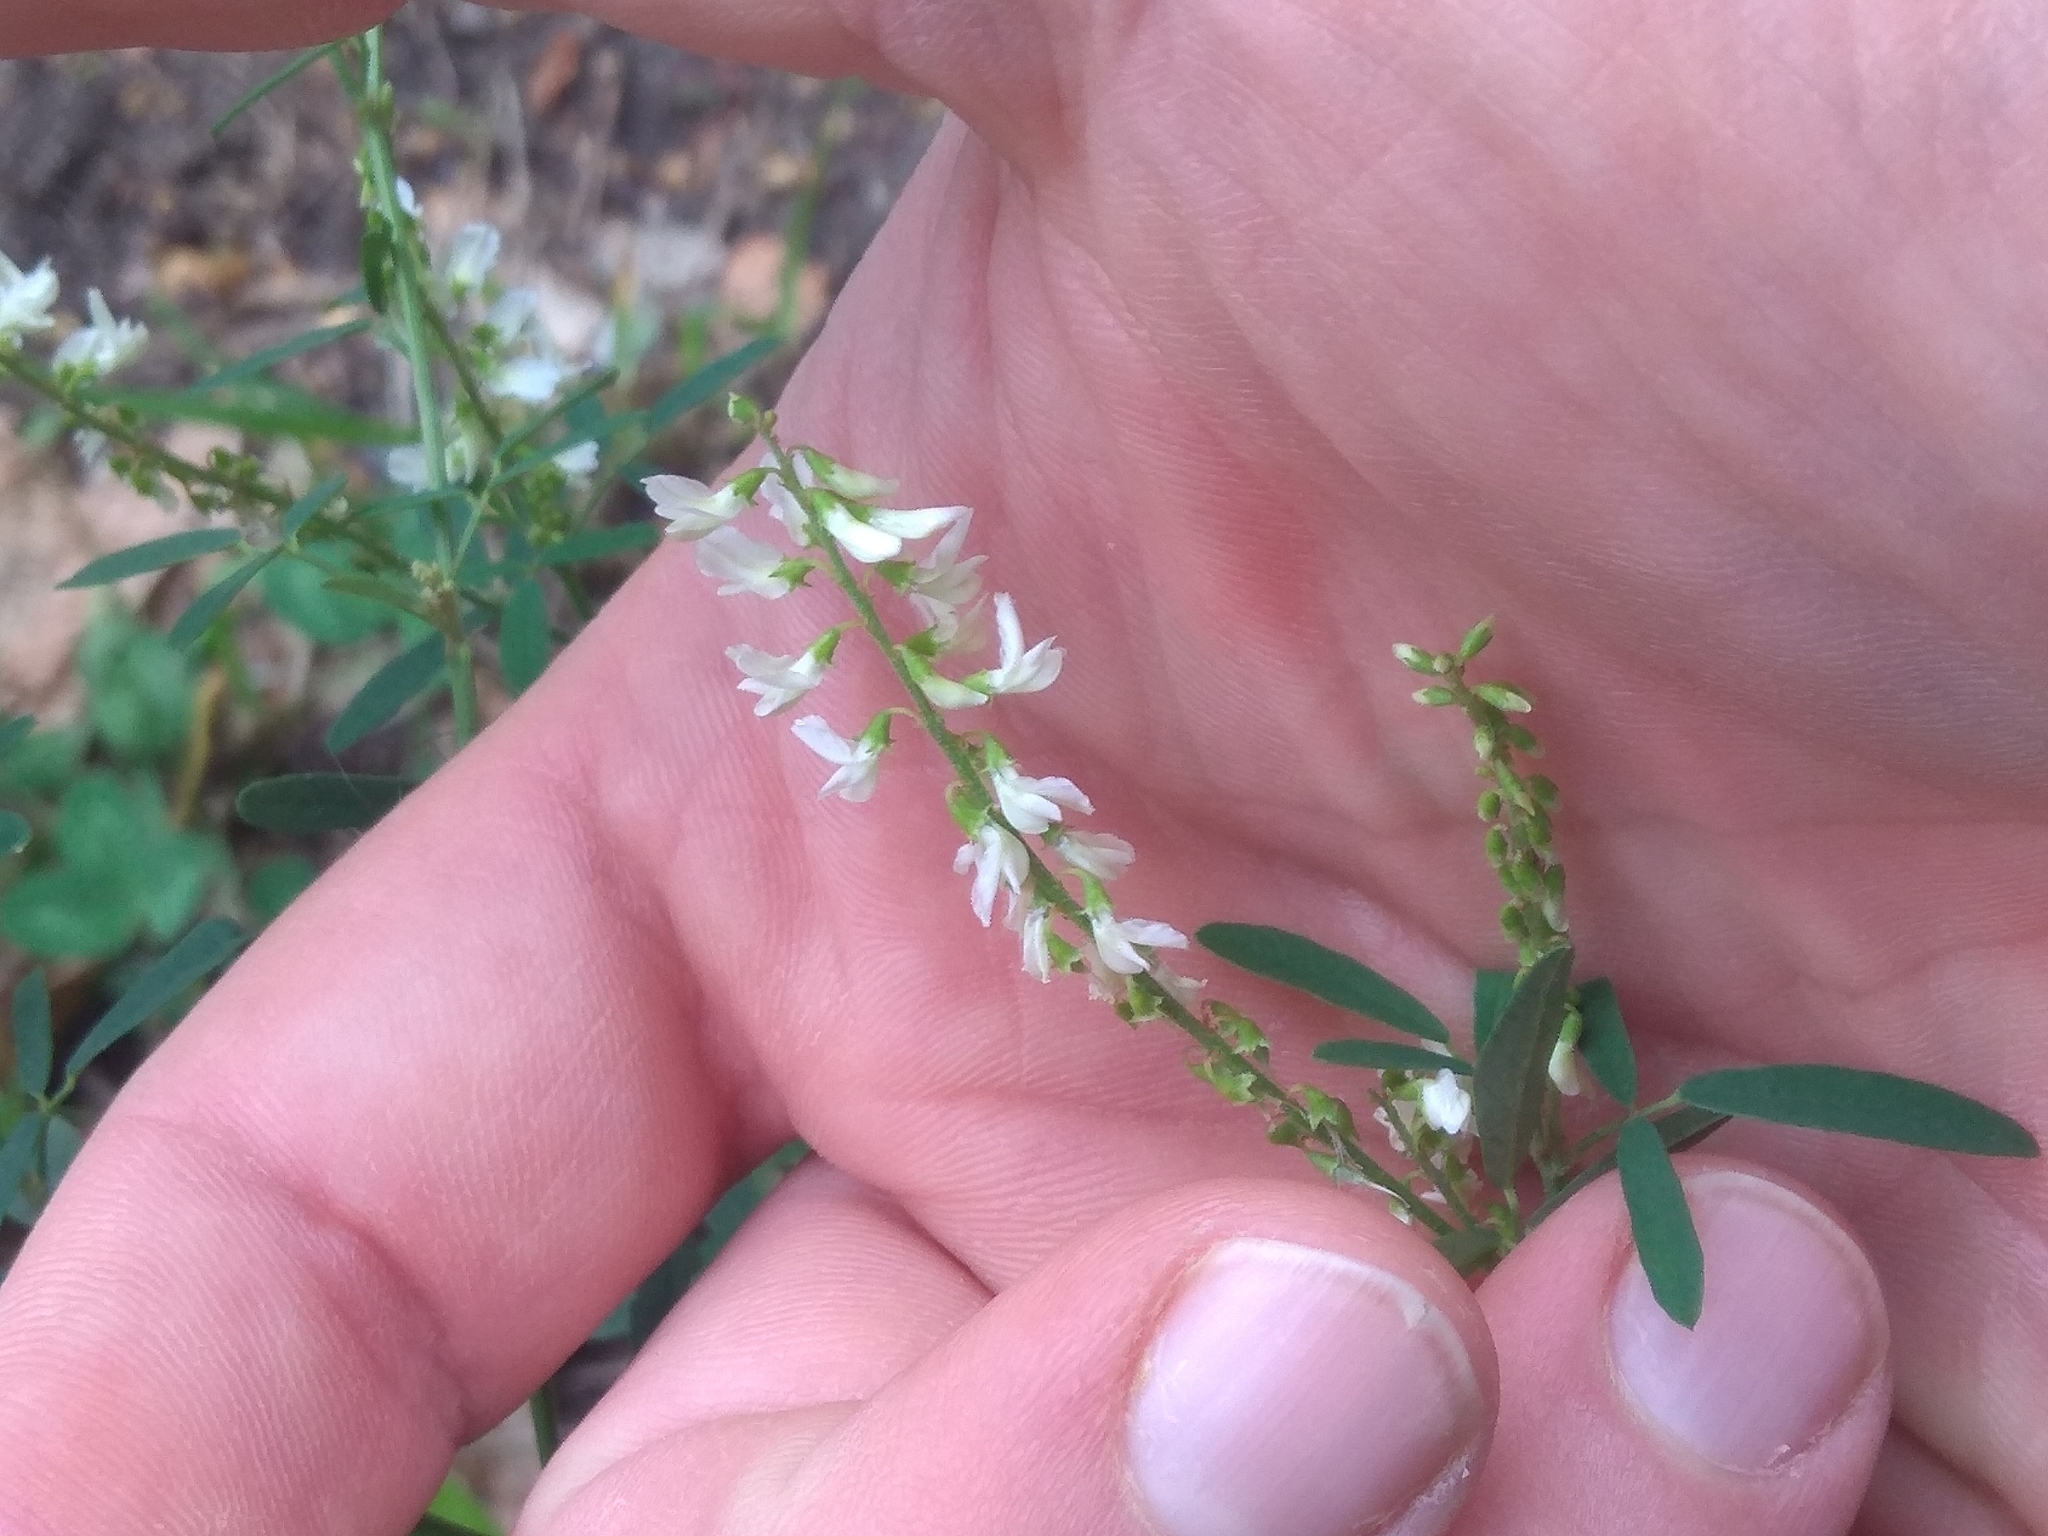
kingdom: Plantae
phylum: Tracheophyta
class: Magnoliopsida
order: Fabales
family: Fabaceae
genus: Melilotus
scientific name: Melilotus albus
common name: White melilot
